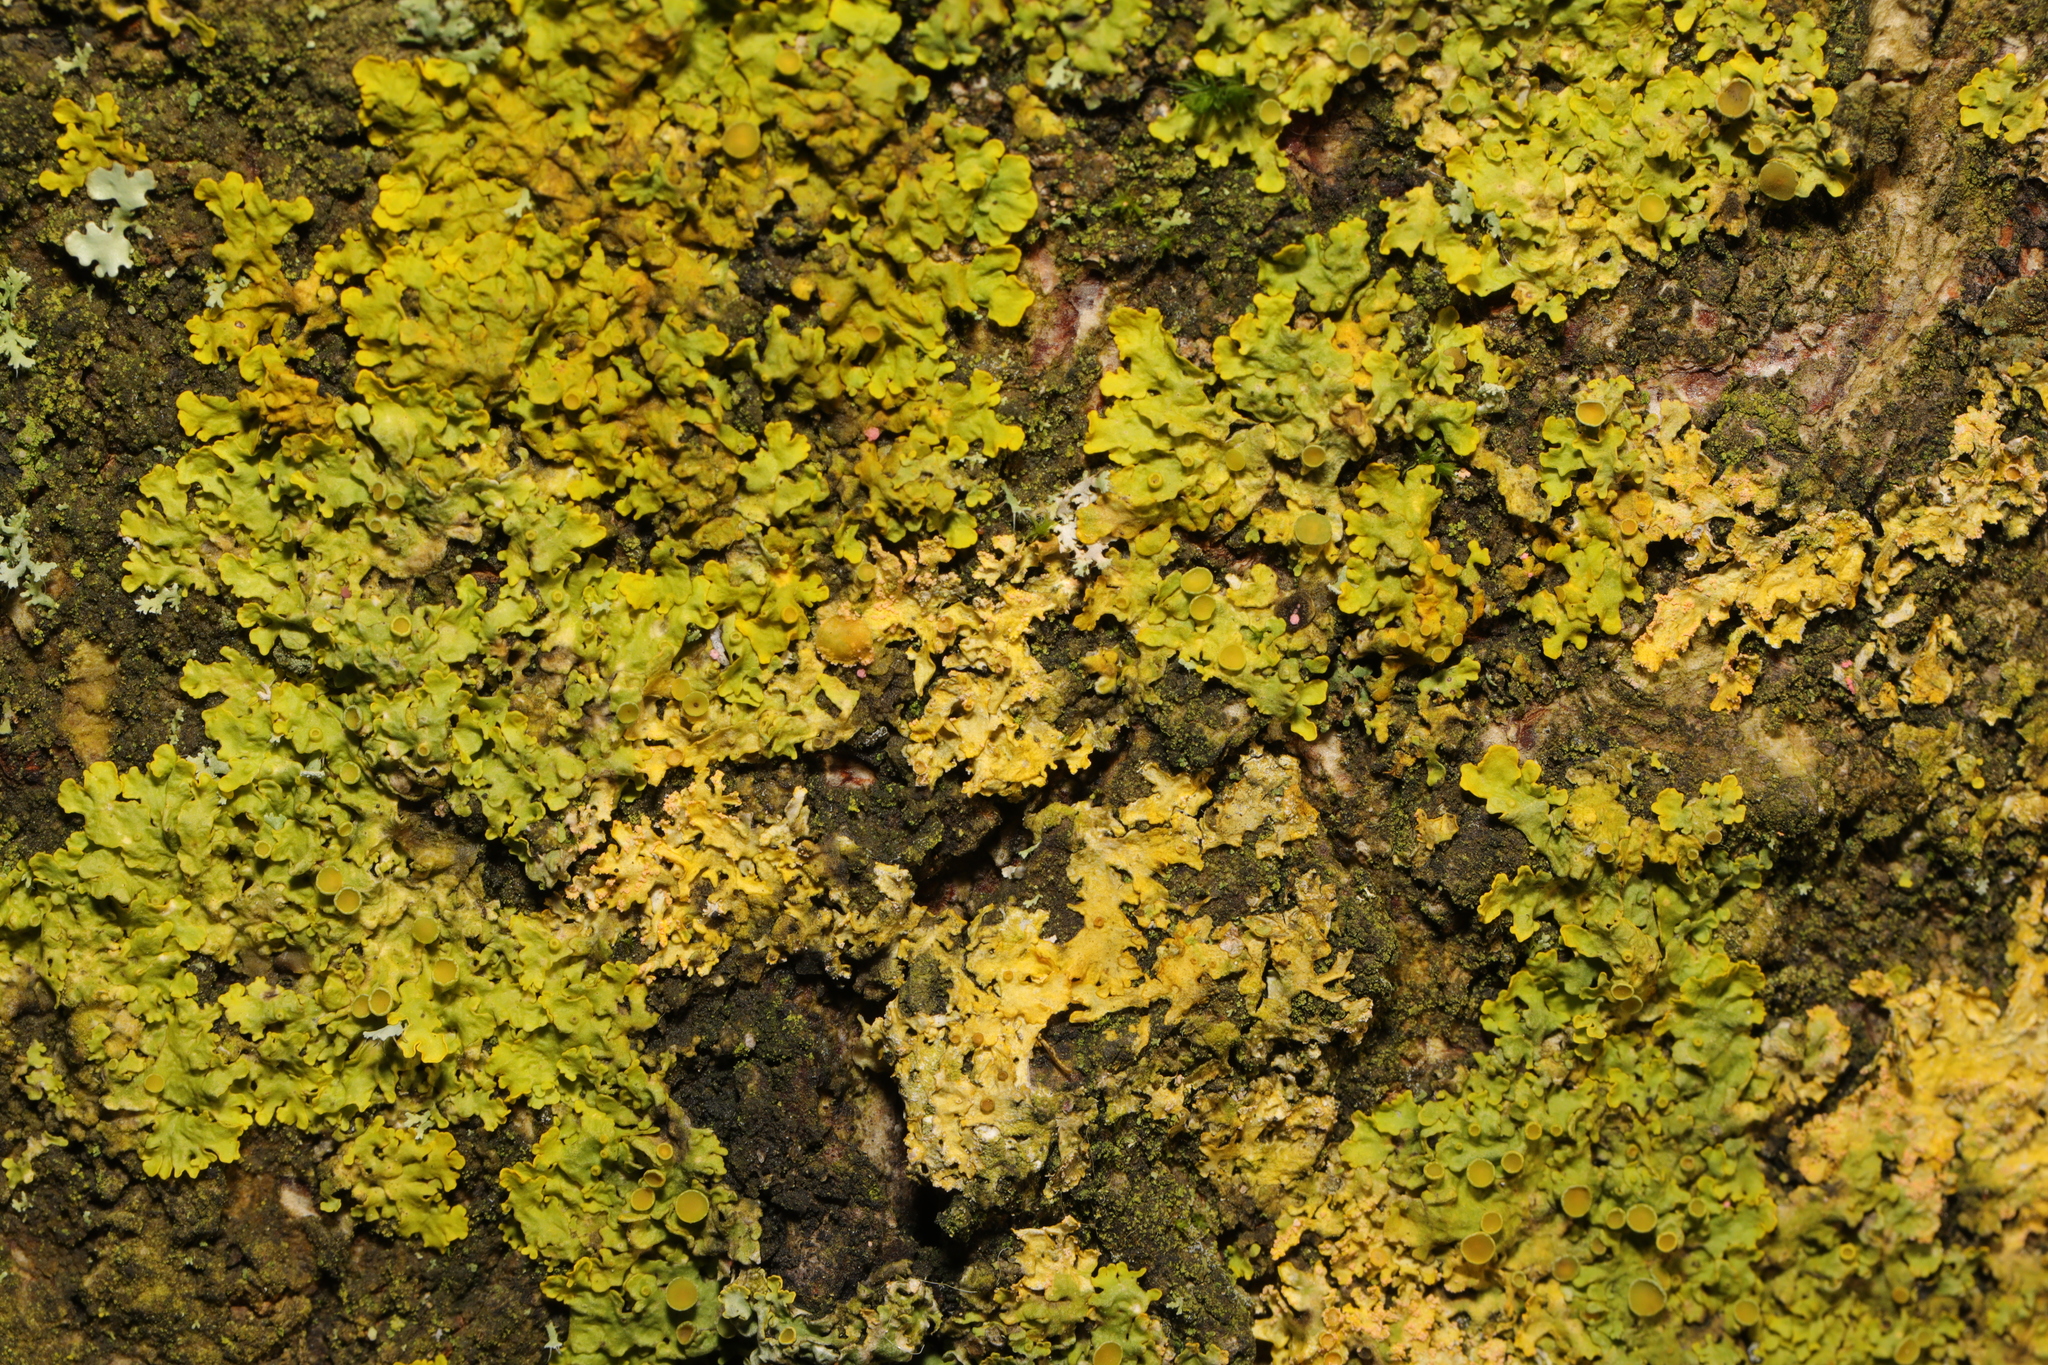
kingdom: Fungi
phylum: Ascomycota
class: Lecanoromycetes
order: Teloschistales
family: Teloschistaceae
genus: Xanthoria
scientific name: Xanthoria parietina
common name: Common orange lichen
